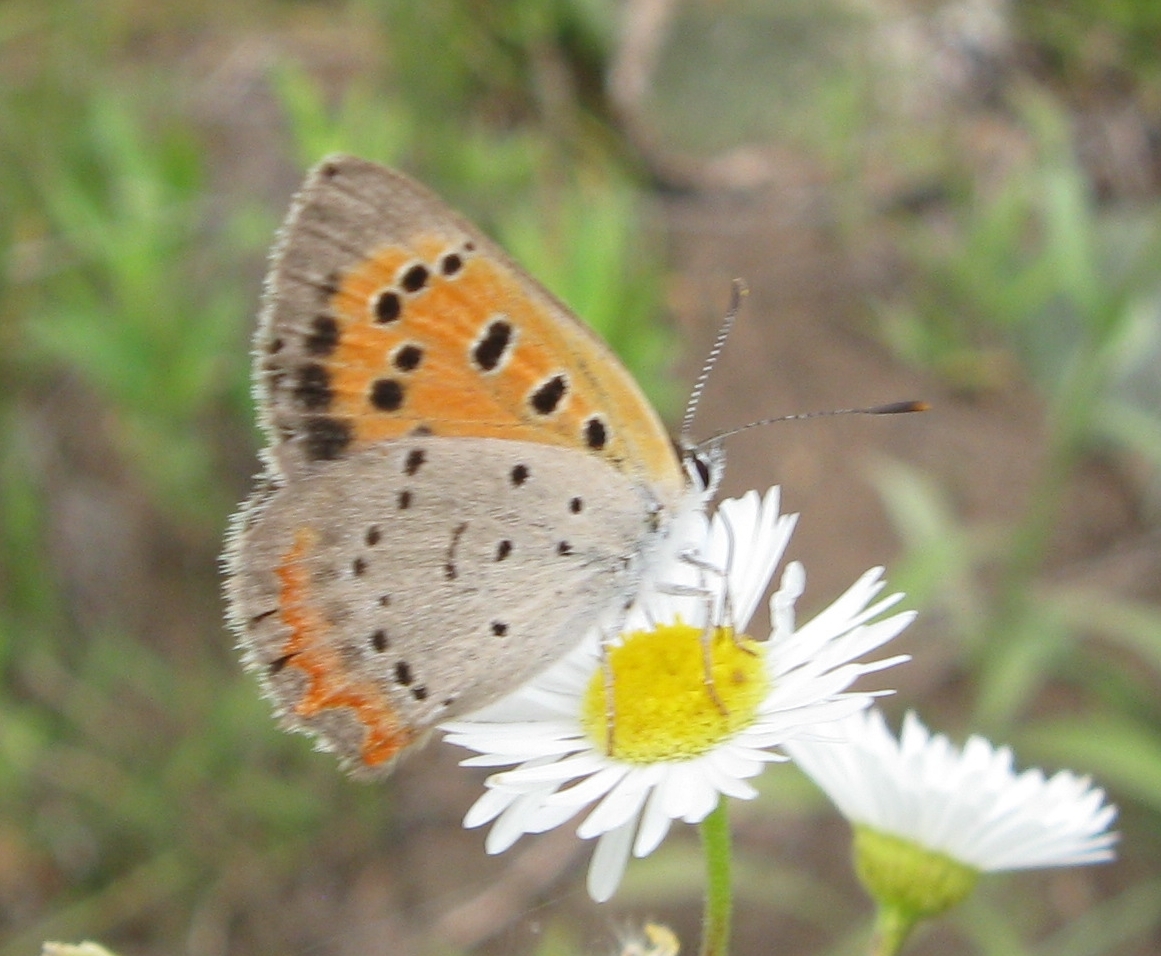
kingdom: Animalia
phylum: Arthropoda
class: Insecta
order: Lepidoptera
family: Lycaenidae
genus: Lycaena
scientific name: Lycaena hypophlaeas
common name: American copper
